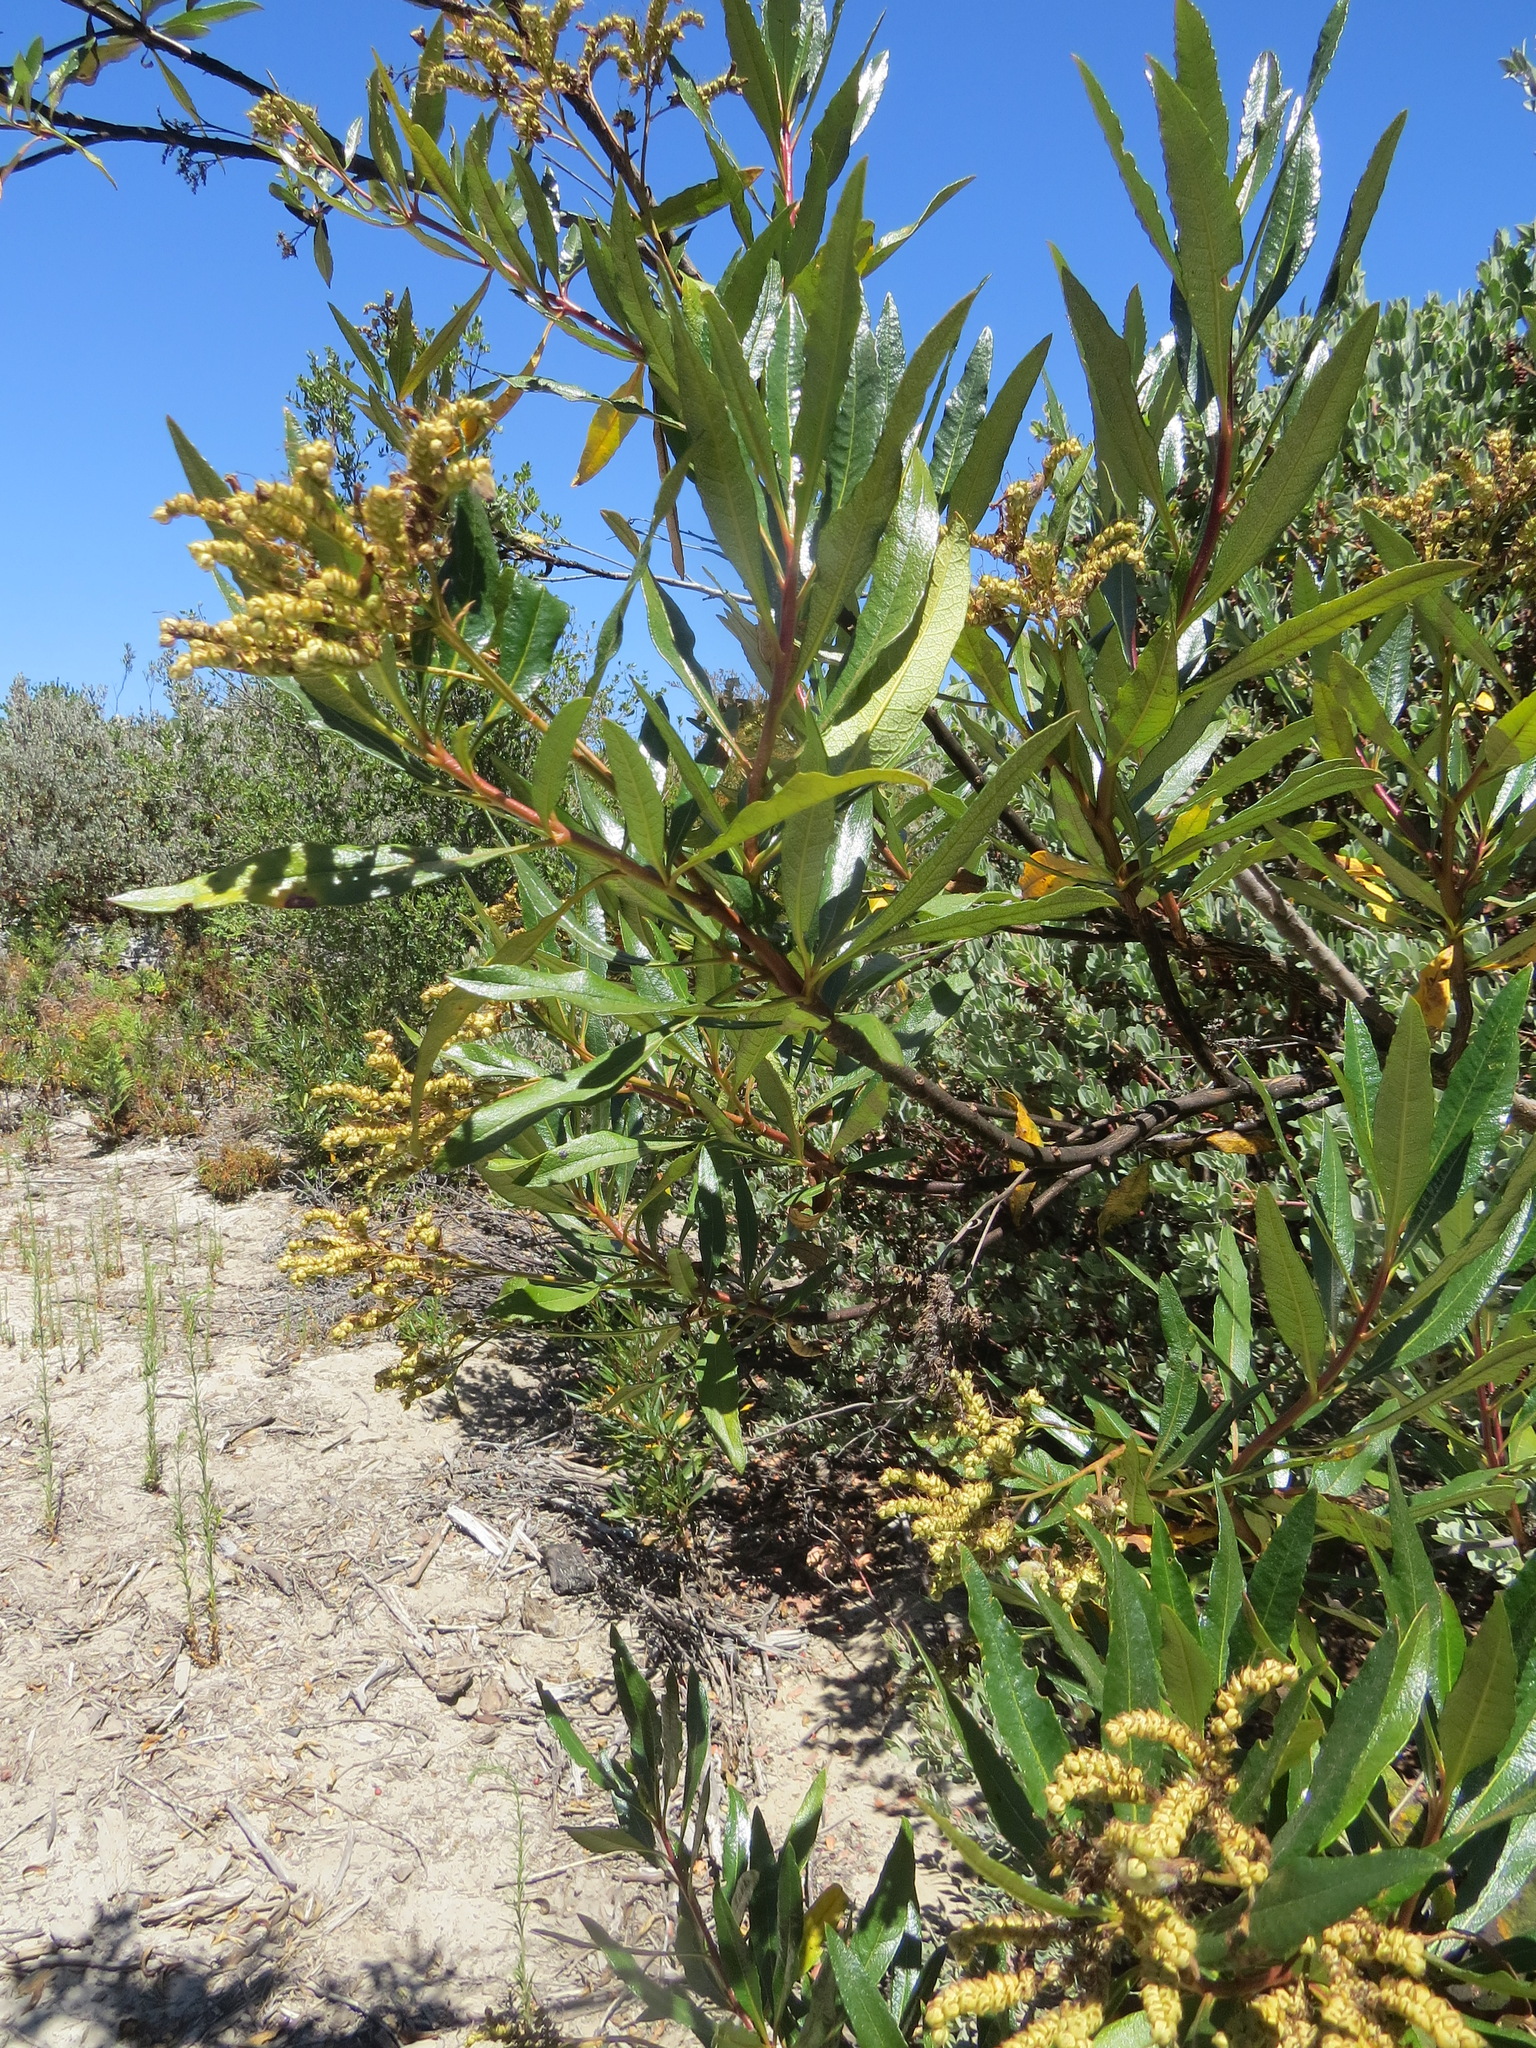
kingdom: Plantae
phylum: Tracheophyta
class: Magnoliopsida
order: Boraginales
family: Namaceae
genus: Eriodictyon
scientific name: Eriodictyon californicum
